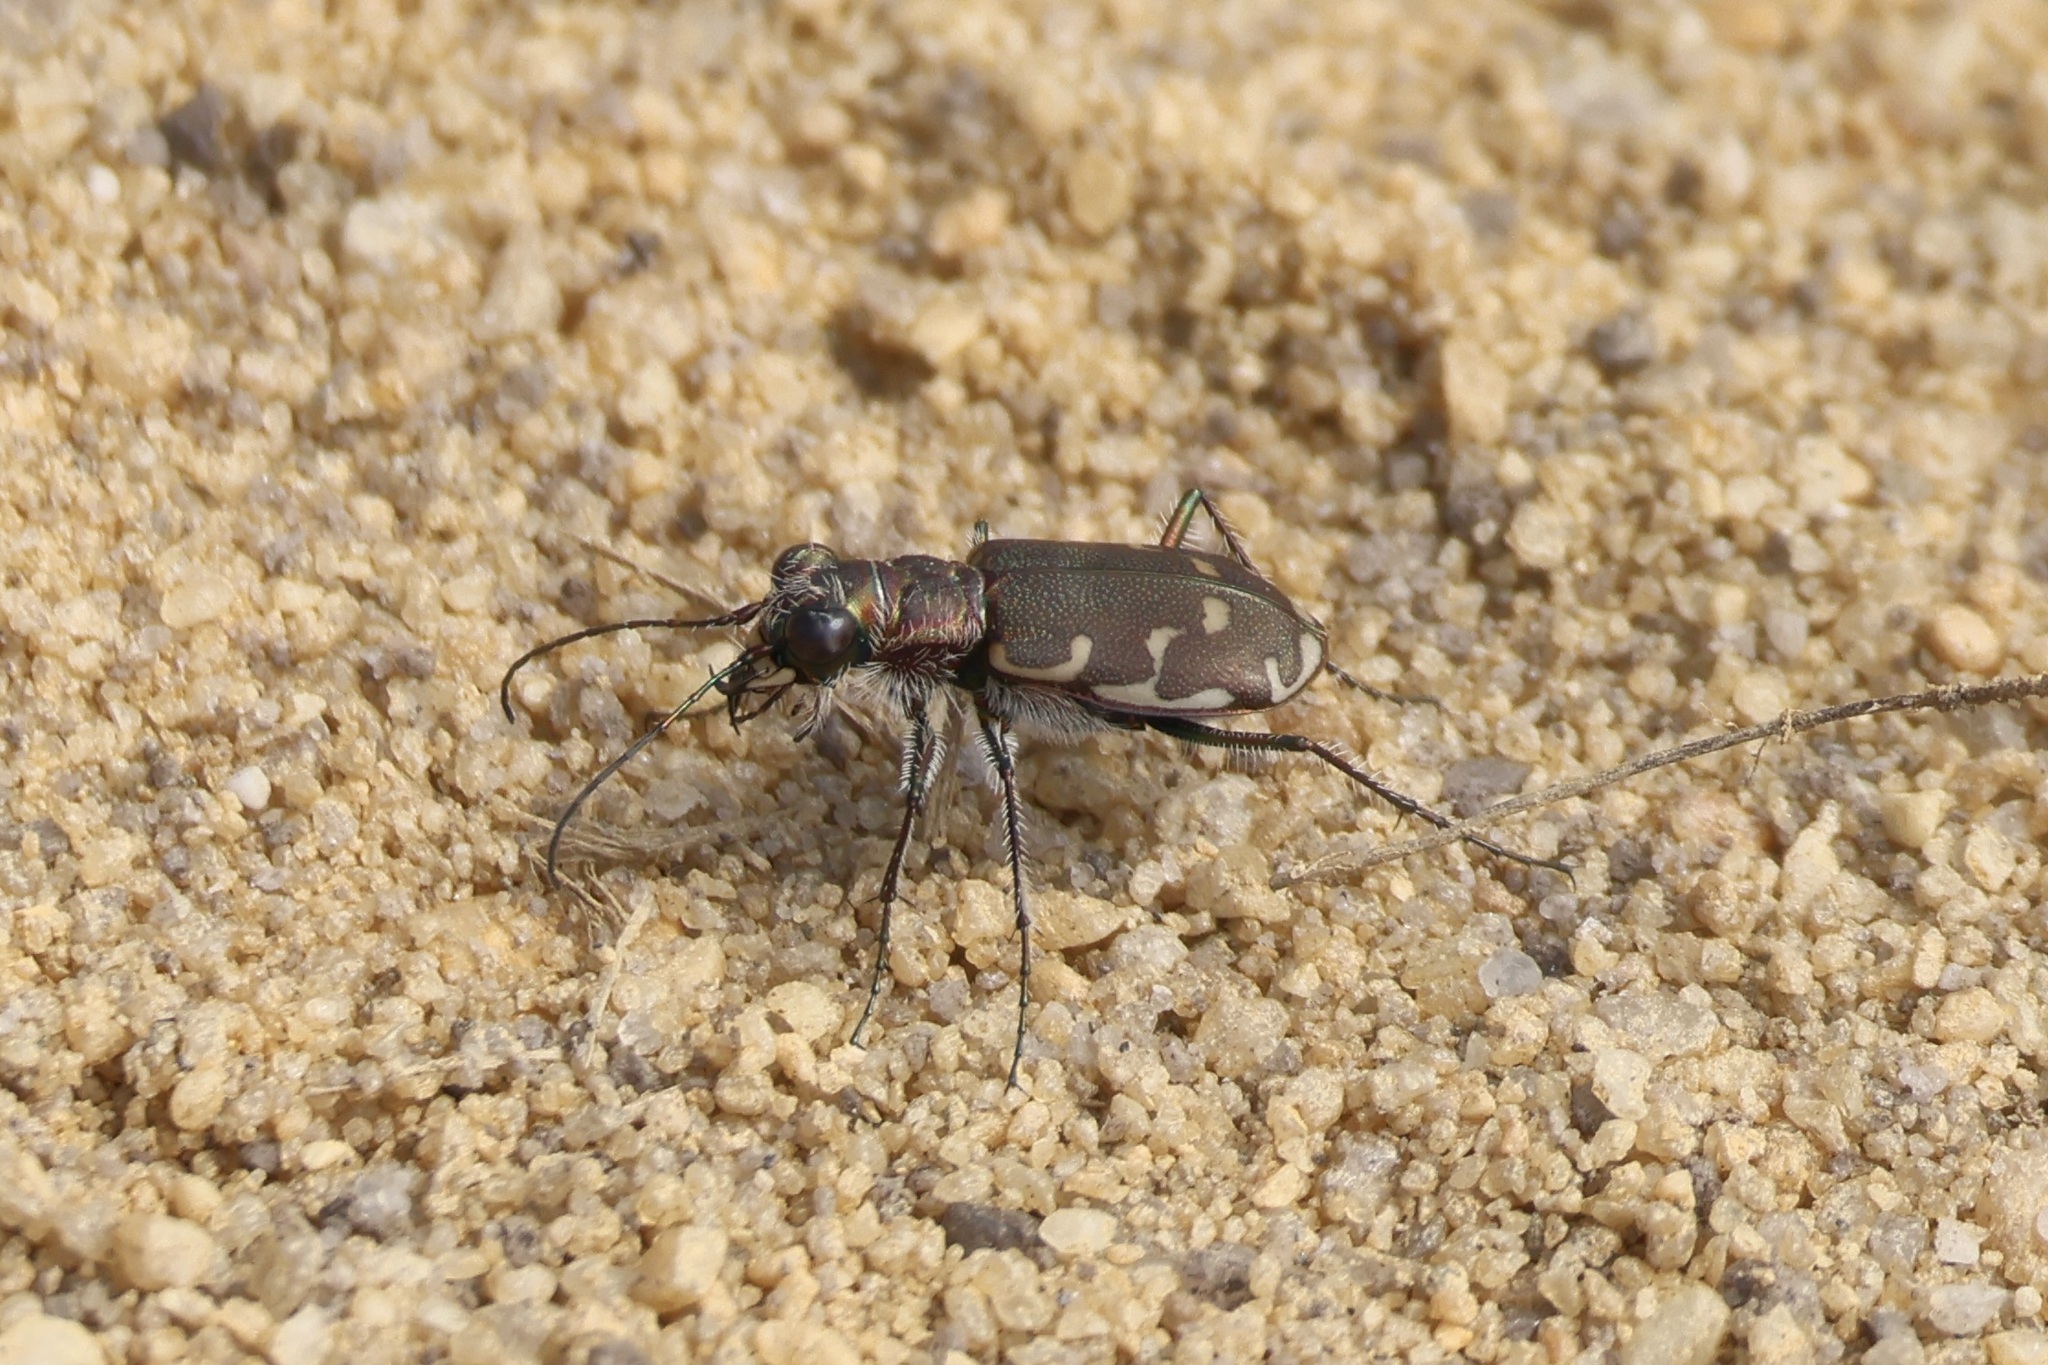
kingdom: Animalia
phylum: Arthropoda
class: Insecta
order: Coleoptera
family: Carabidae
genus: Cicindela
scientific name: Cicindela repanda
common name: Bronzed tiger beetle
